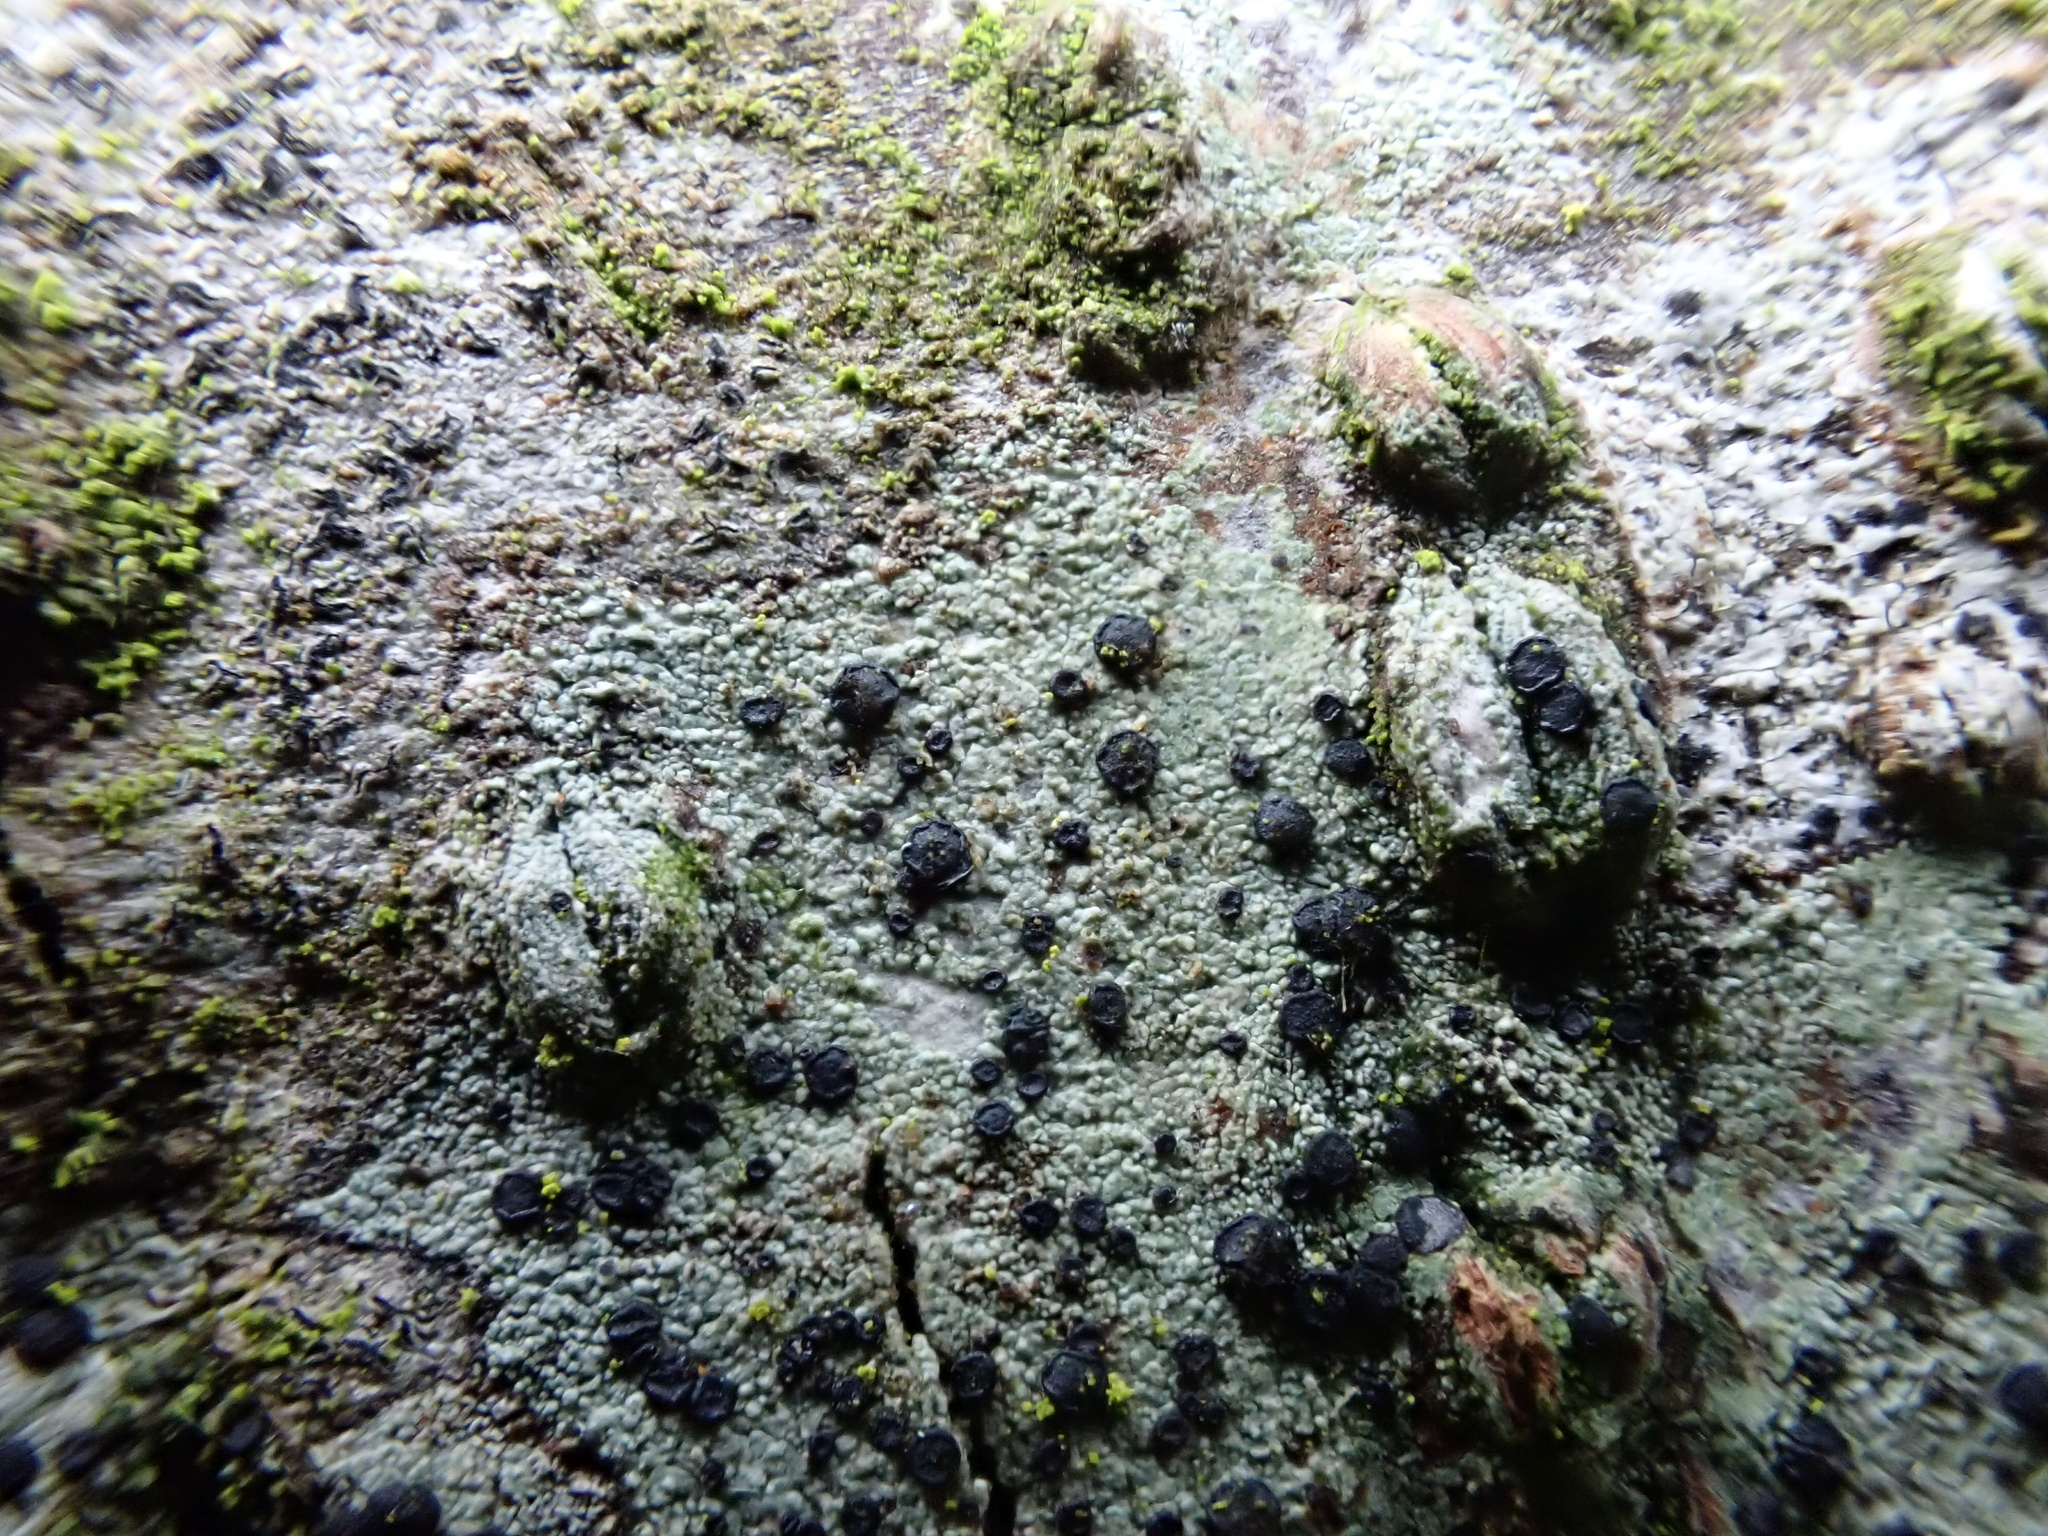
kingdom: Fungi
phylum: Ascomycota
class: Lecanoromycetes
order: Lecanorales
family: Lecanoraceae
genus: Lecidella
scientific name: Lecidella elaeochroma
